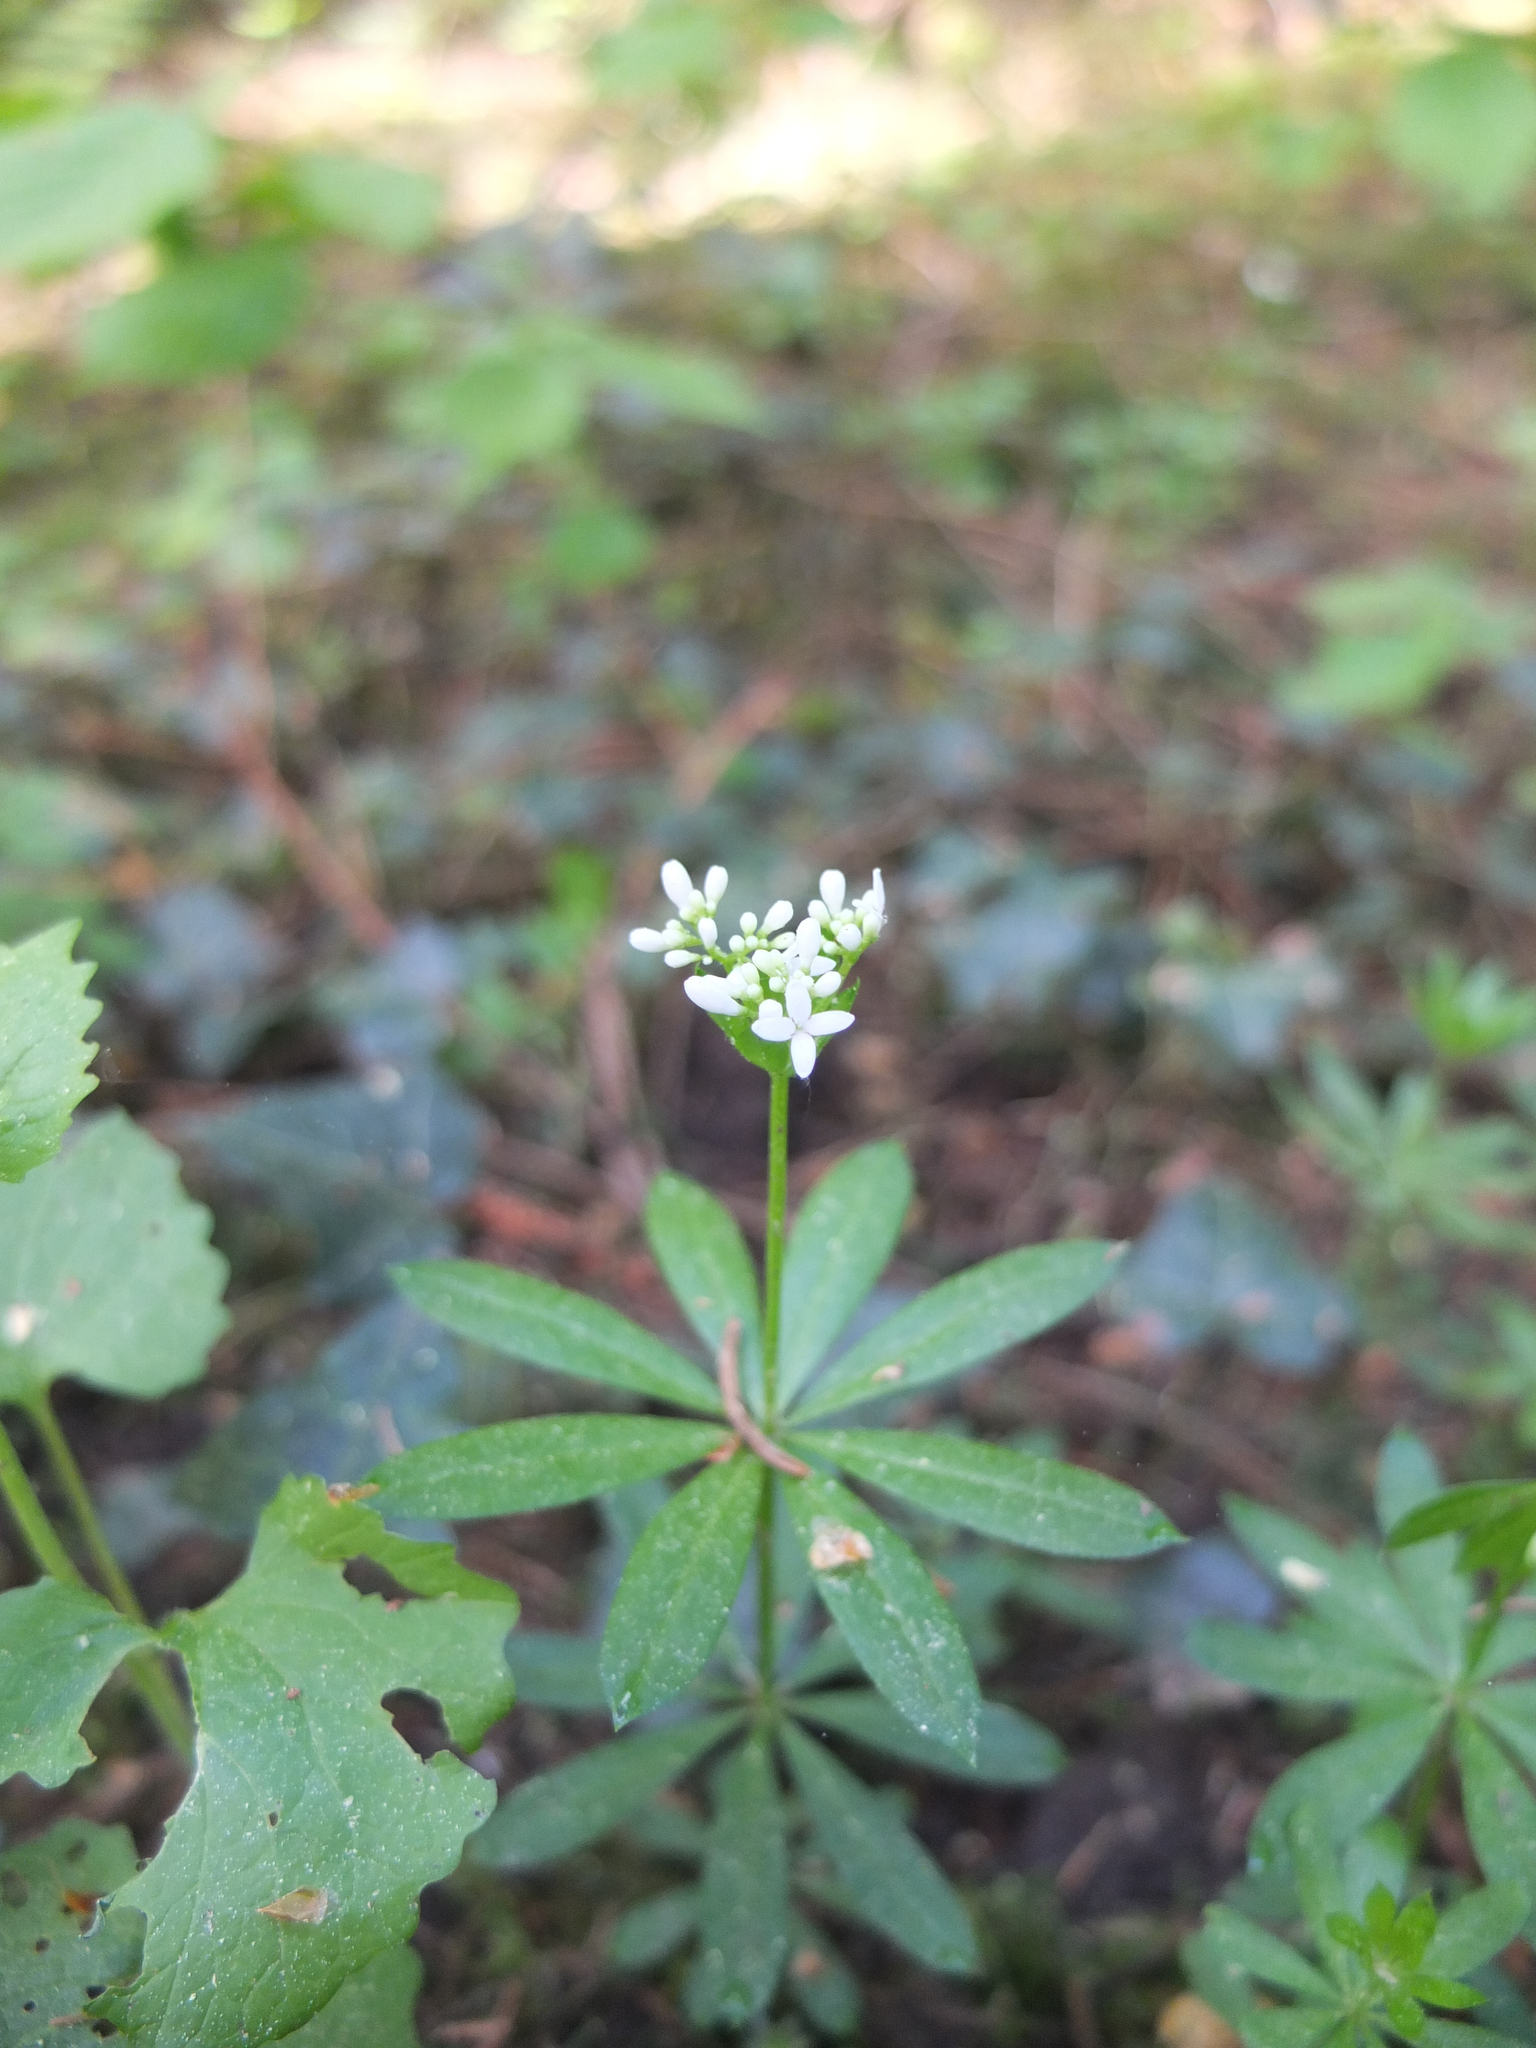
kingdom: Plantae
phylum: Tracheophyta
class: Magnoliopsida
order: Gentianales
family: Rubiaceae
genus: Galium
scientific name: Galium odoratum
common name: Sweet woodruff
